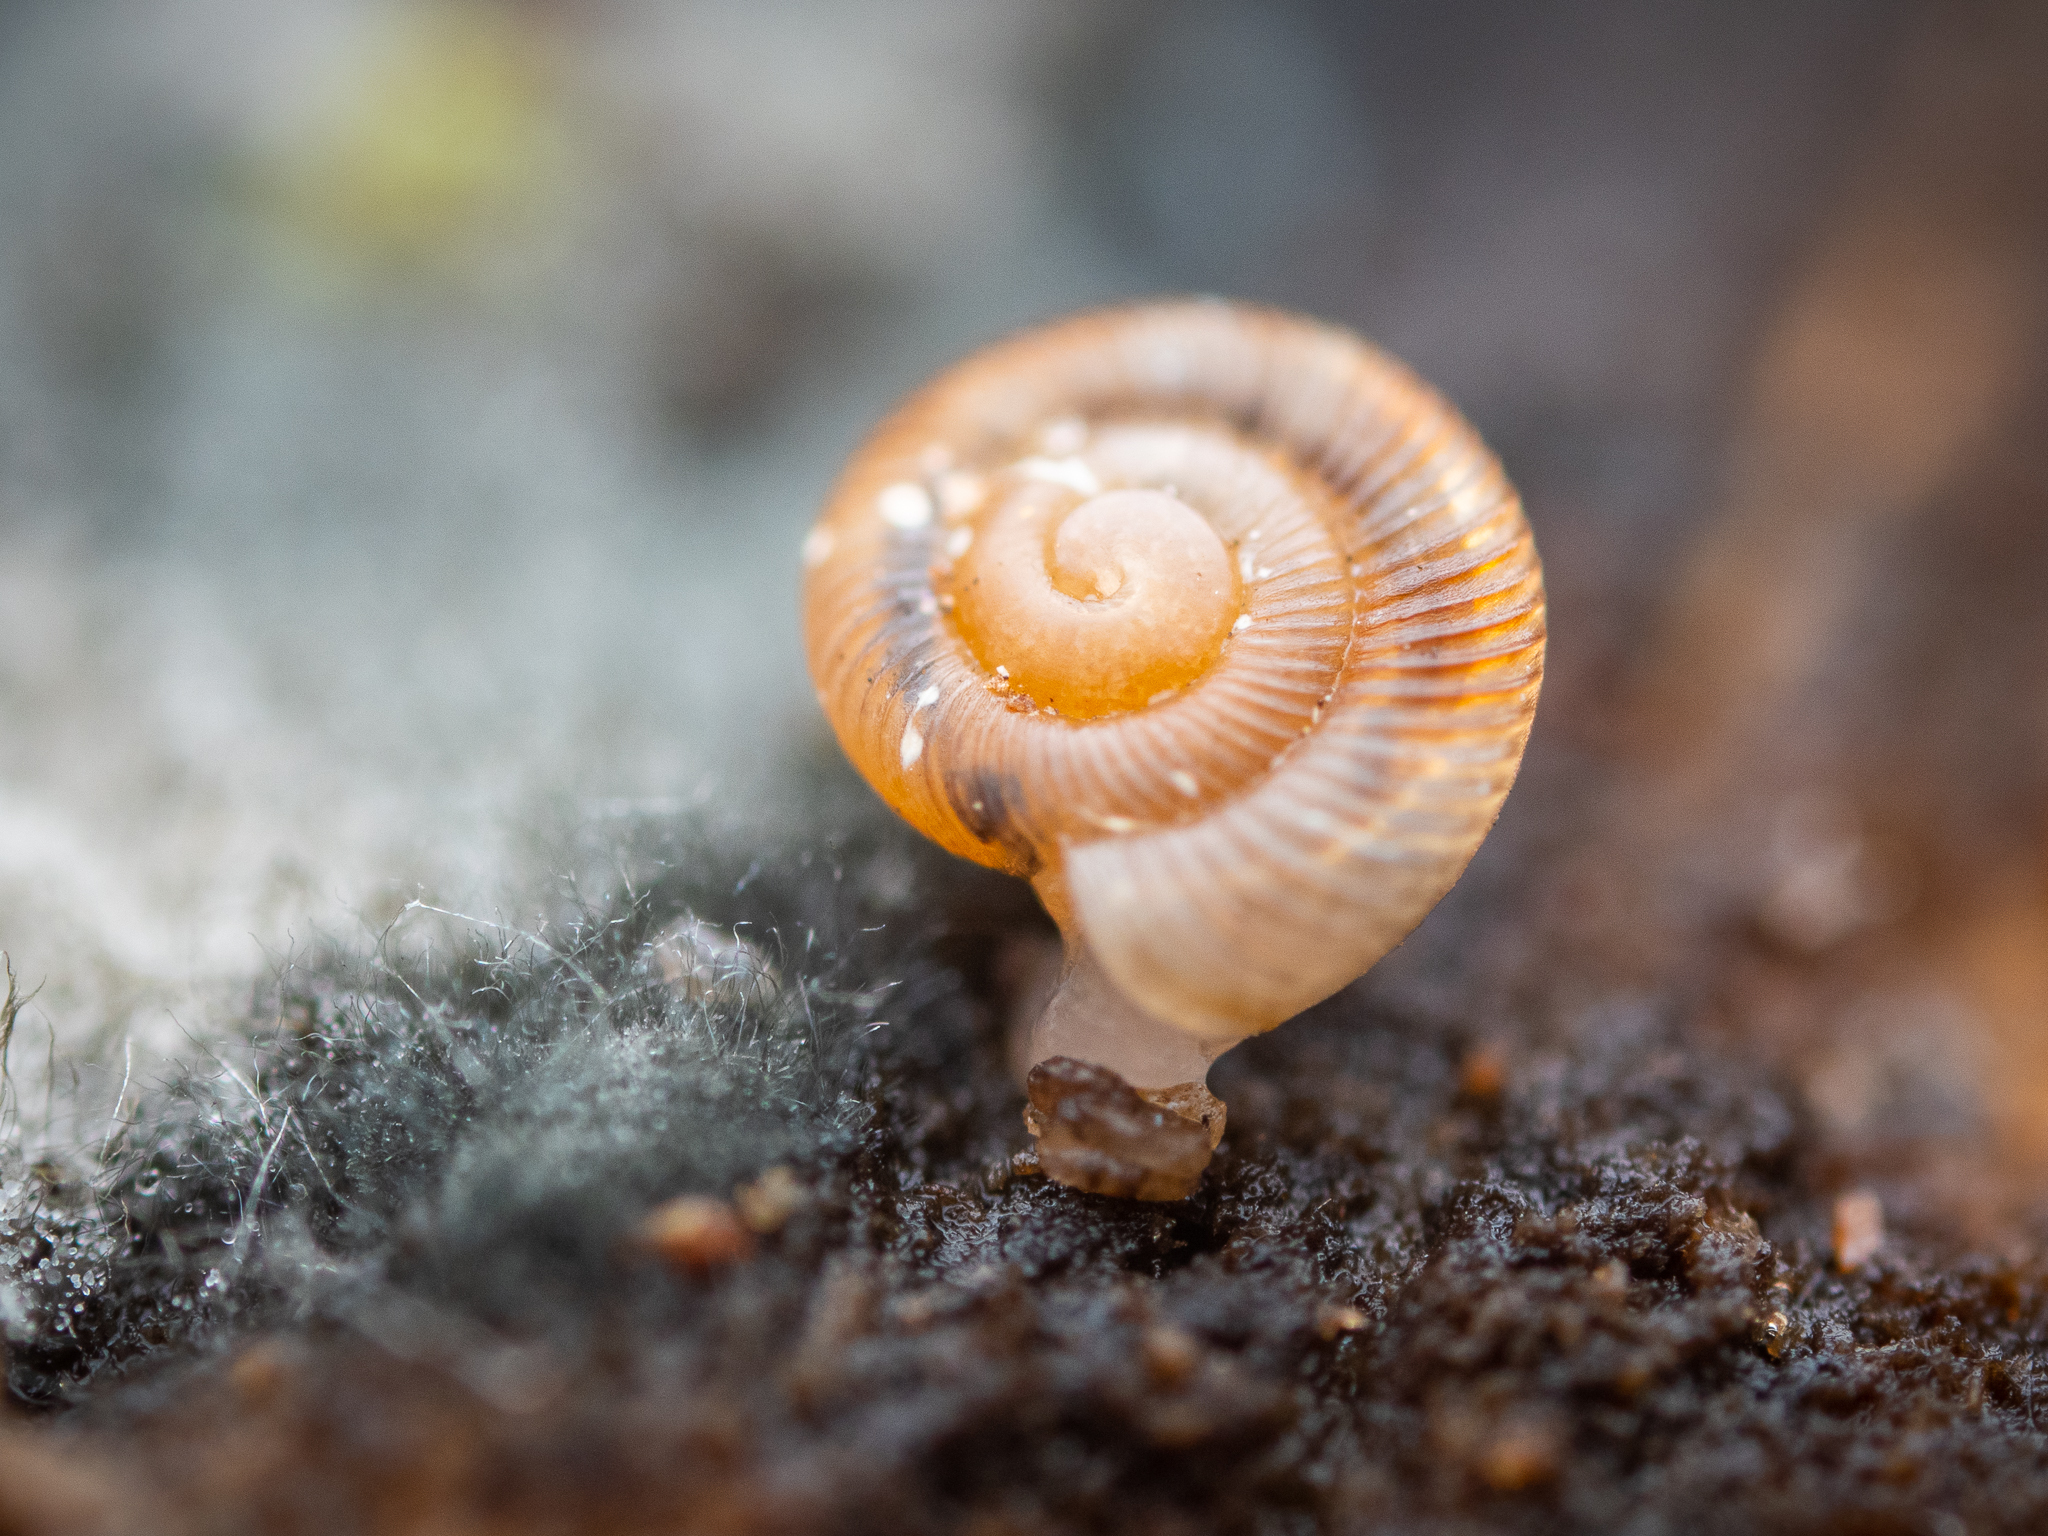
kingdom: Animalia
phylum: Mollusca
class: Gastropoda
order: Stylommatophora
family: Discidae
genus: Discus
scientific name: Discus rotundatus
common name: Rounded snail
